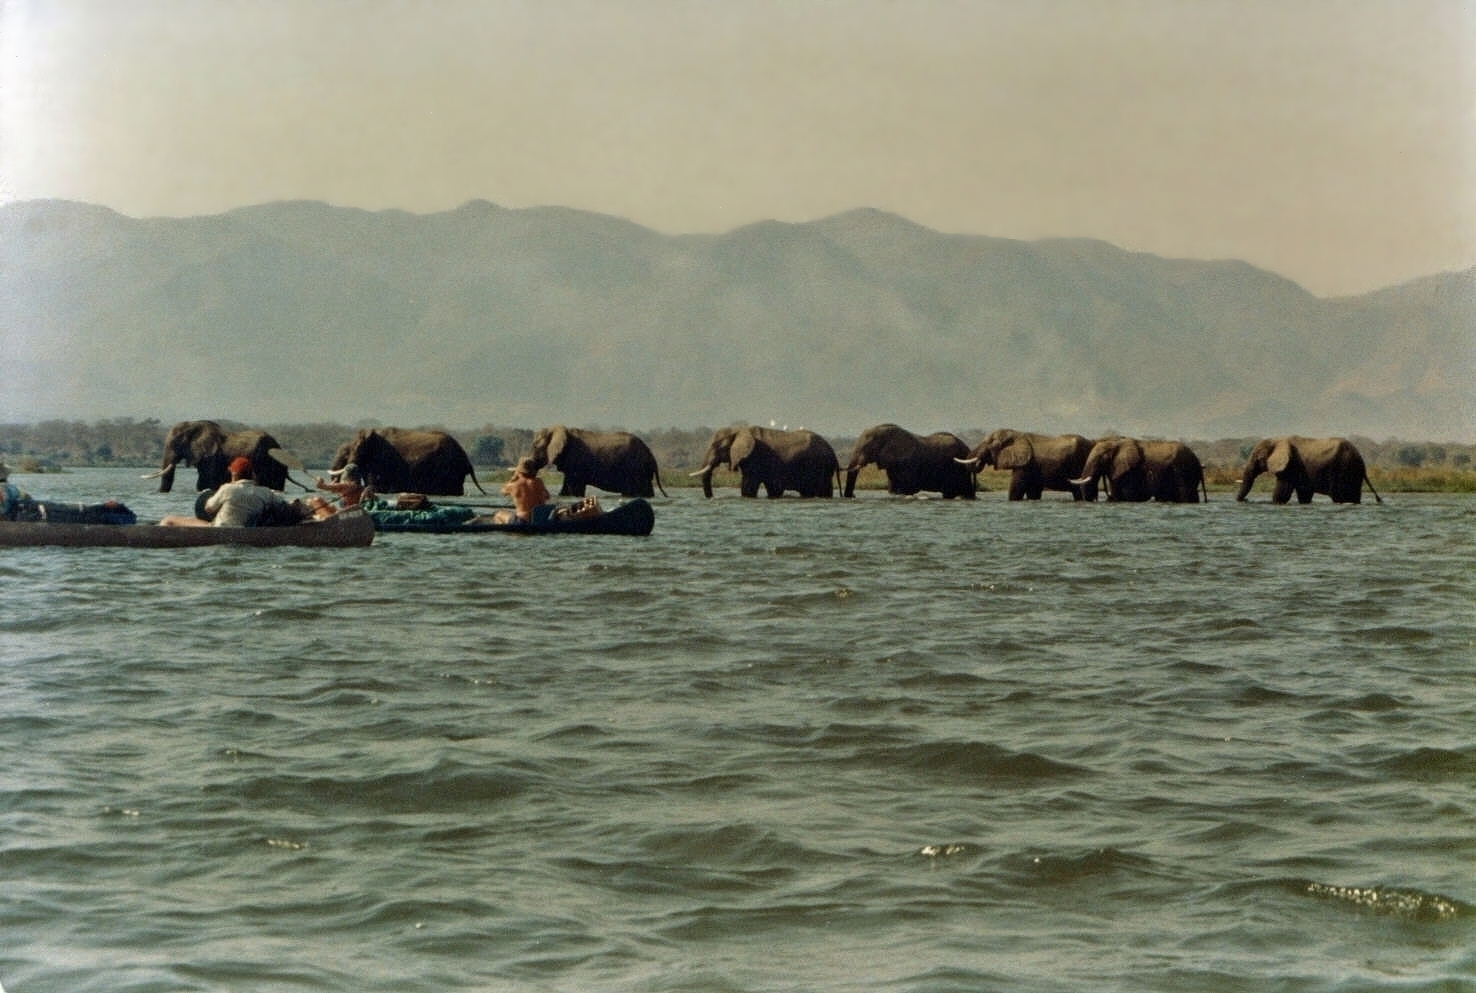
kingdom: Animalia
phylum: Chordata
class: Mammalia
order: Proboscidea
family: Elephantidae
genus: Loxodonta
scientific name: Loxodonta africana
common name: African elephant
